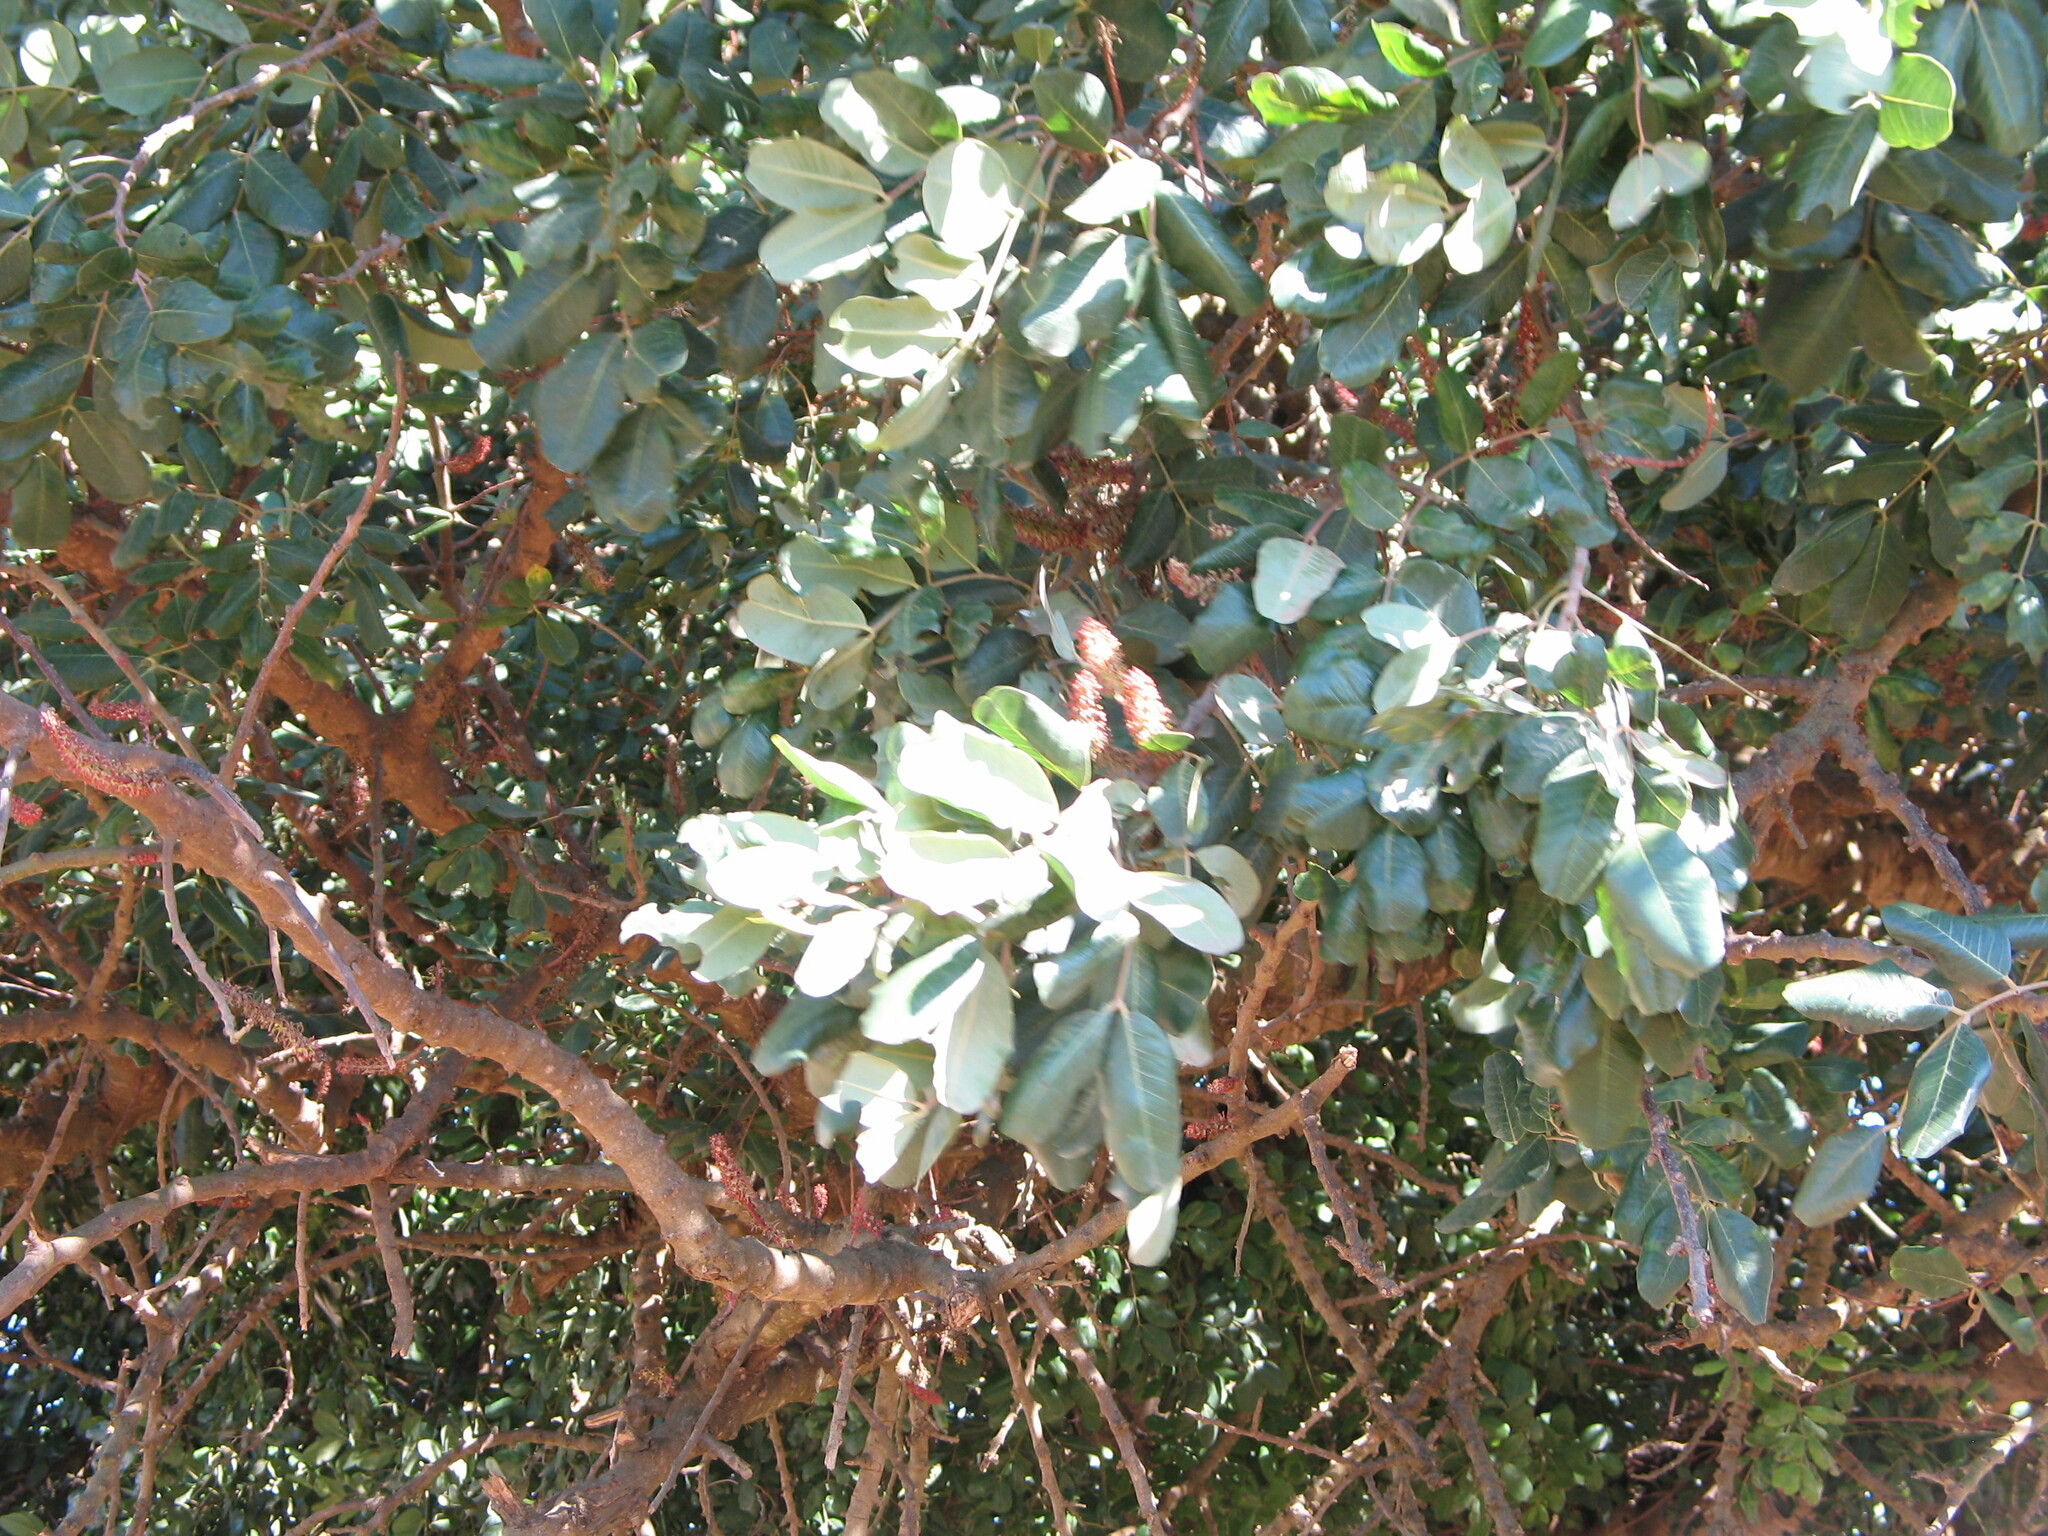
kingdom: Plantae
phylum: Tracheophyta
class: Magnoliopsida
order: Fabales
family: Fabaceae
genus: Ceratonia
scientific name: Ceratonia siliqua
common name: Carob
